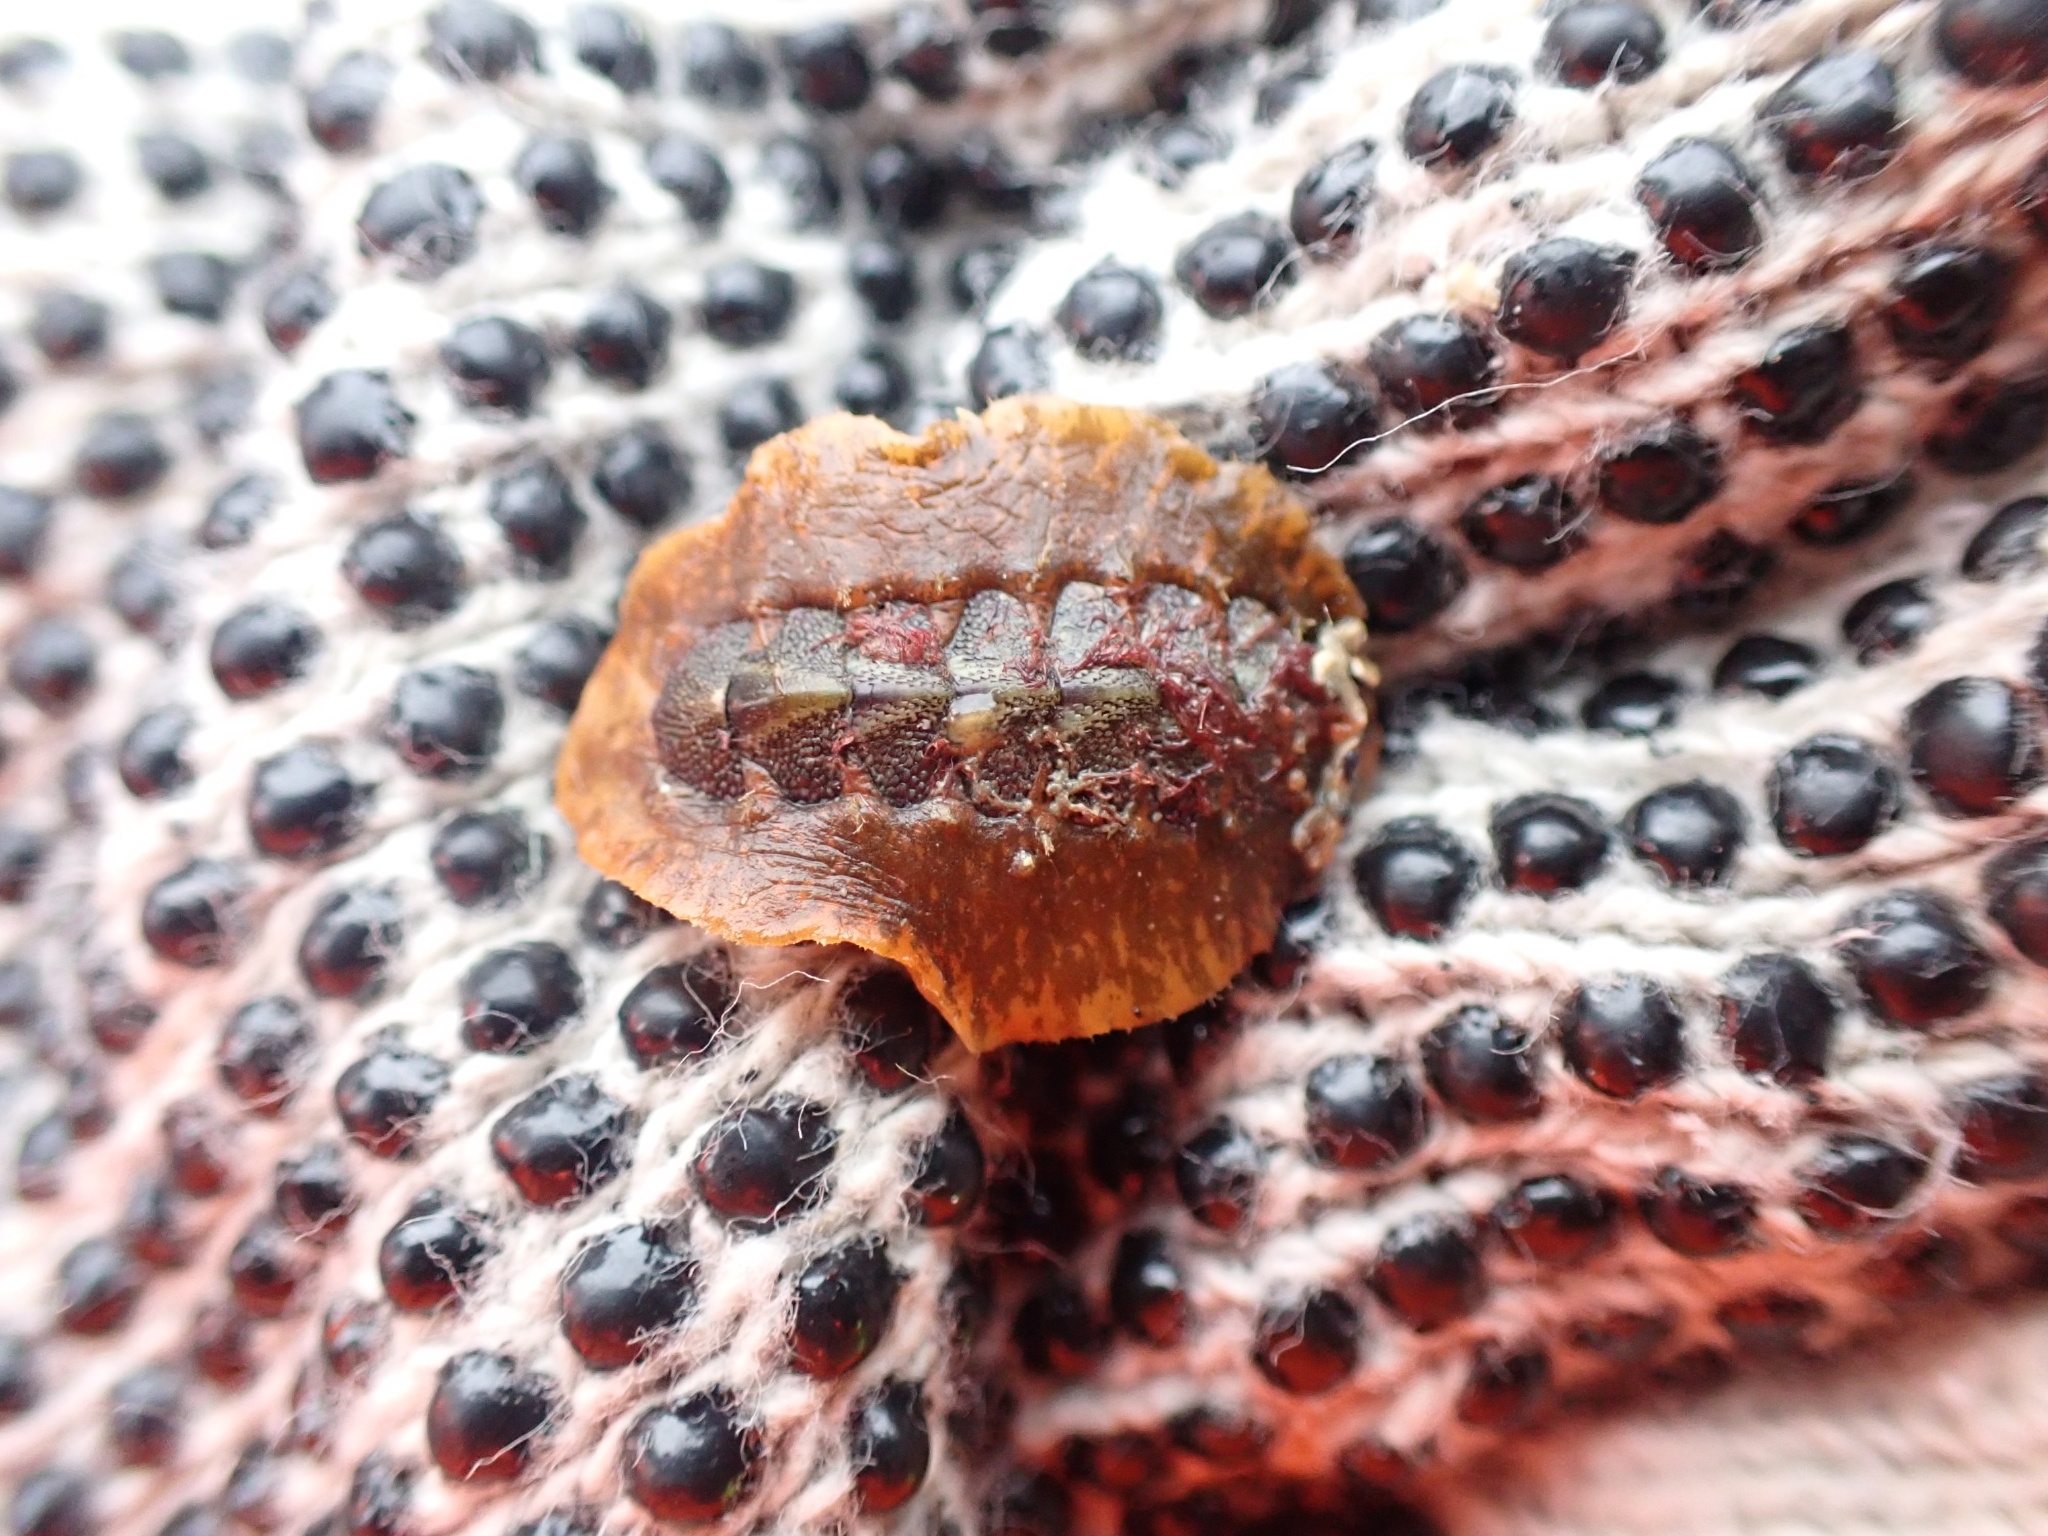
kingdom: Animalia
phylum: Mollusca
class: Polyplacophora
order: Chitonida
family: Acanthochitonidae
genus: Notoplax
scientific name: Notoplax violacea
